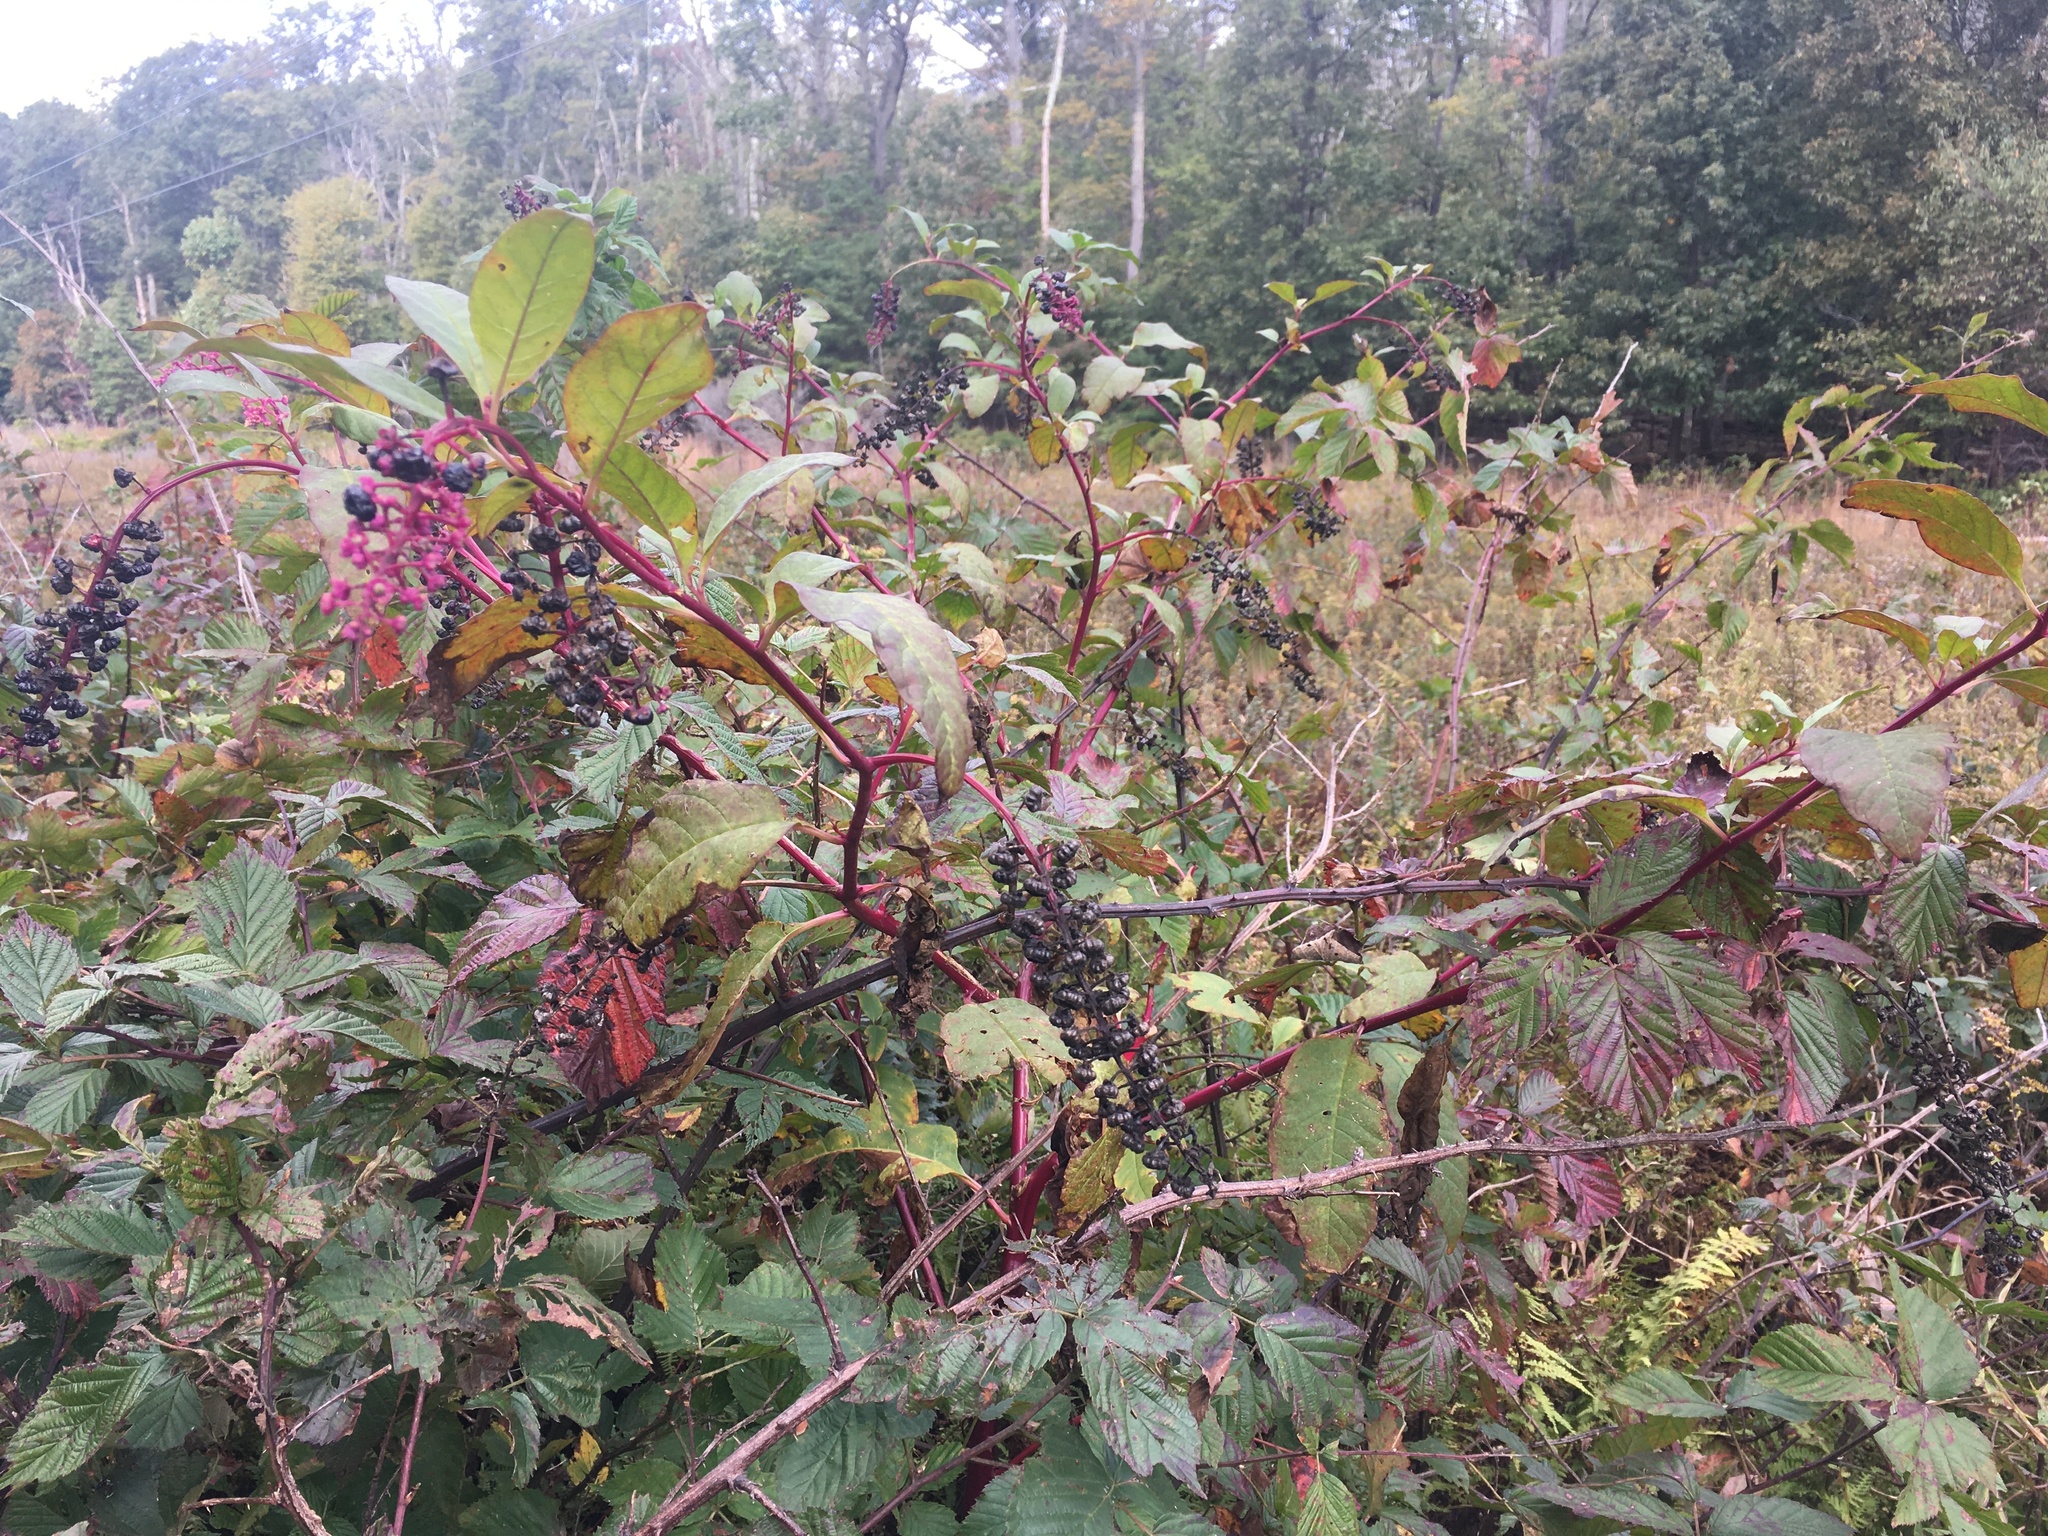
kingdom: Plantae
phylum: Tracheophyta
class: Magnoliopsida
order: Caryophyllales
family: Phytolaccaceae
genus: Phytolacca
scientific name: Phytolacca americana
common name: American pokeweed
